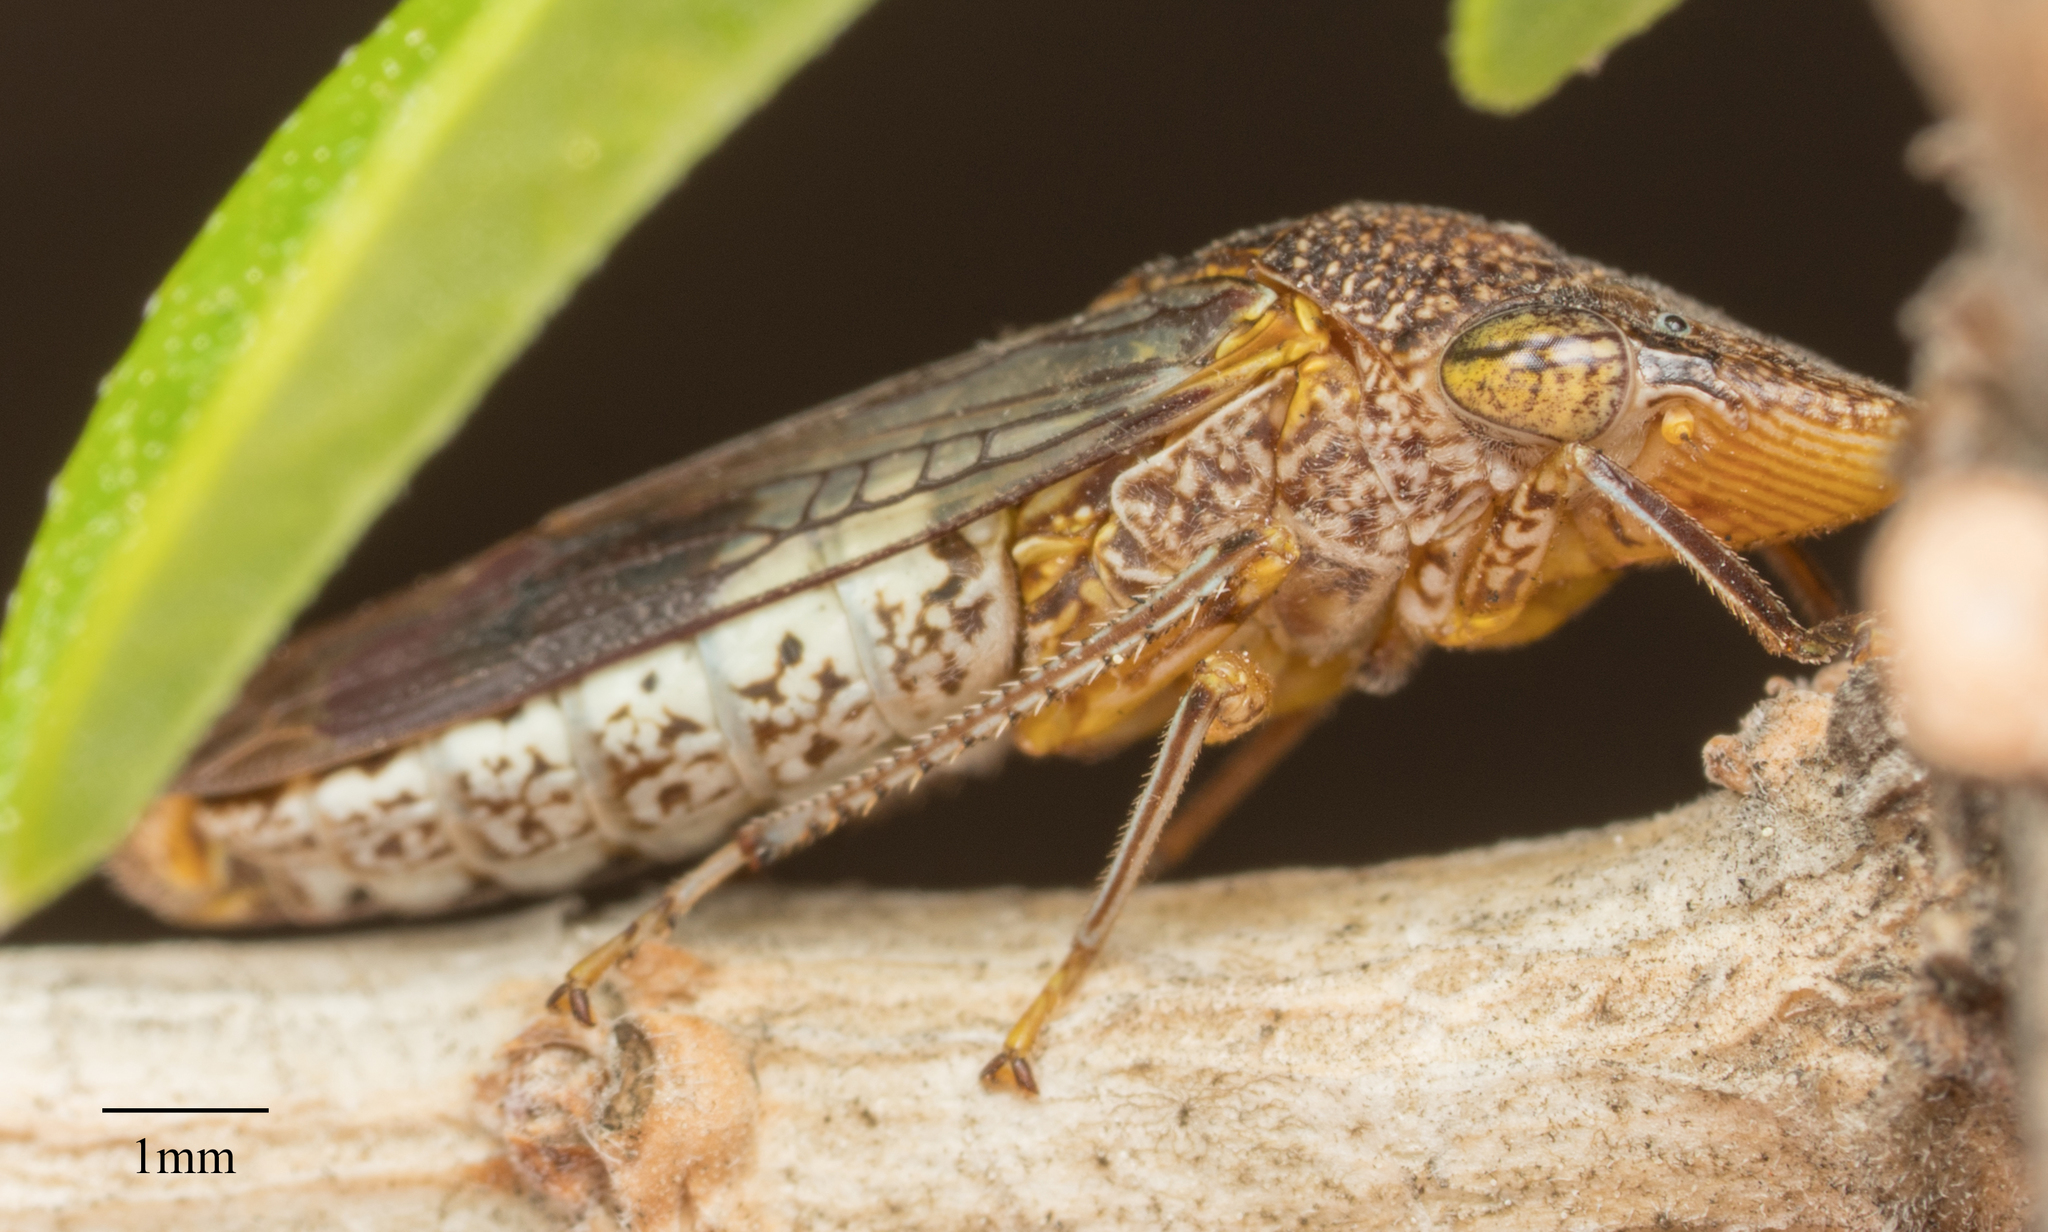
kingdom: Animalia
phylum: Arthropoda
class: Insecta
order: Hemiptera
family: Cicadellidae
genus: Homalodisca
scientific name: Homalodisca vitripennis
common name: Glassy-winged sharpshooter
